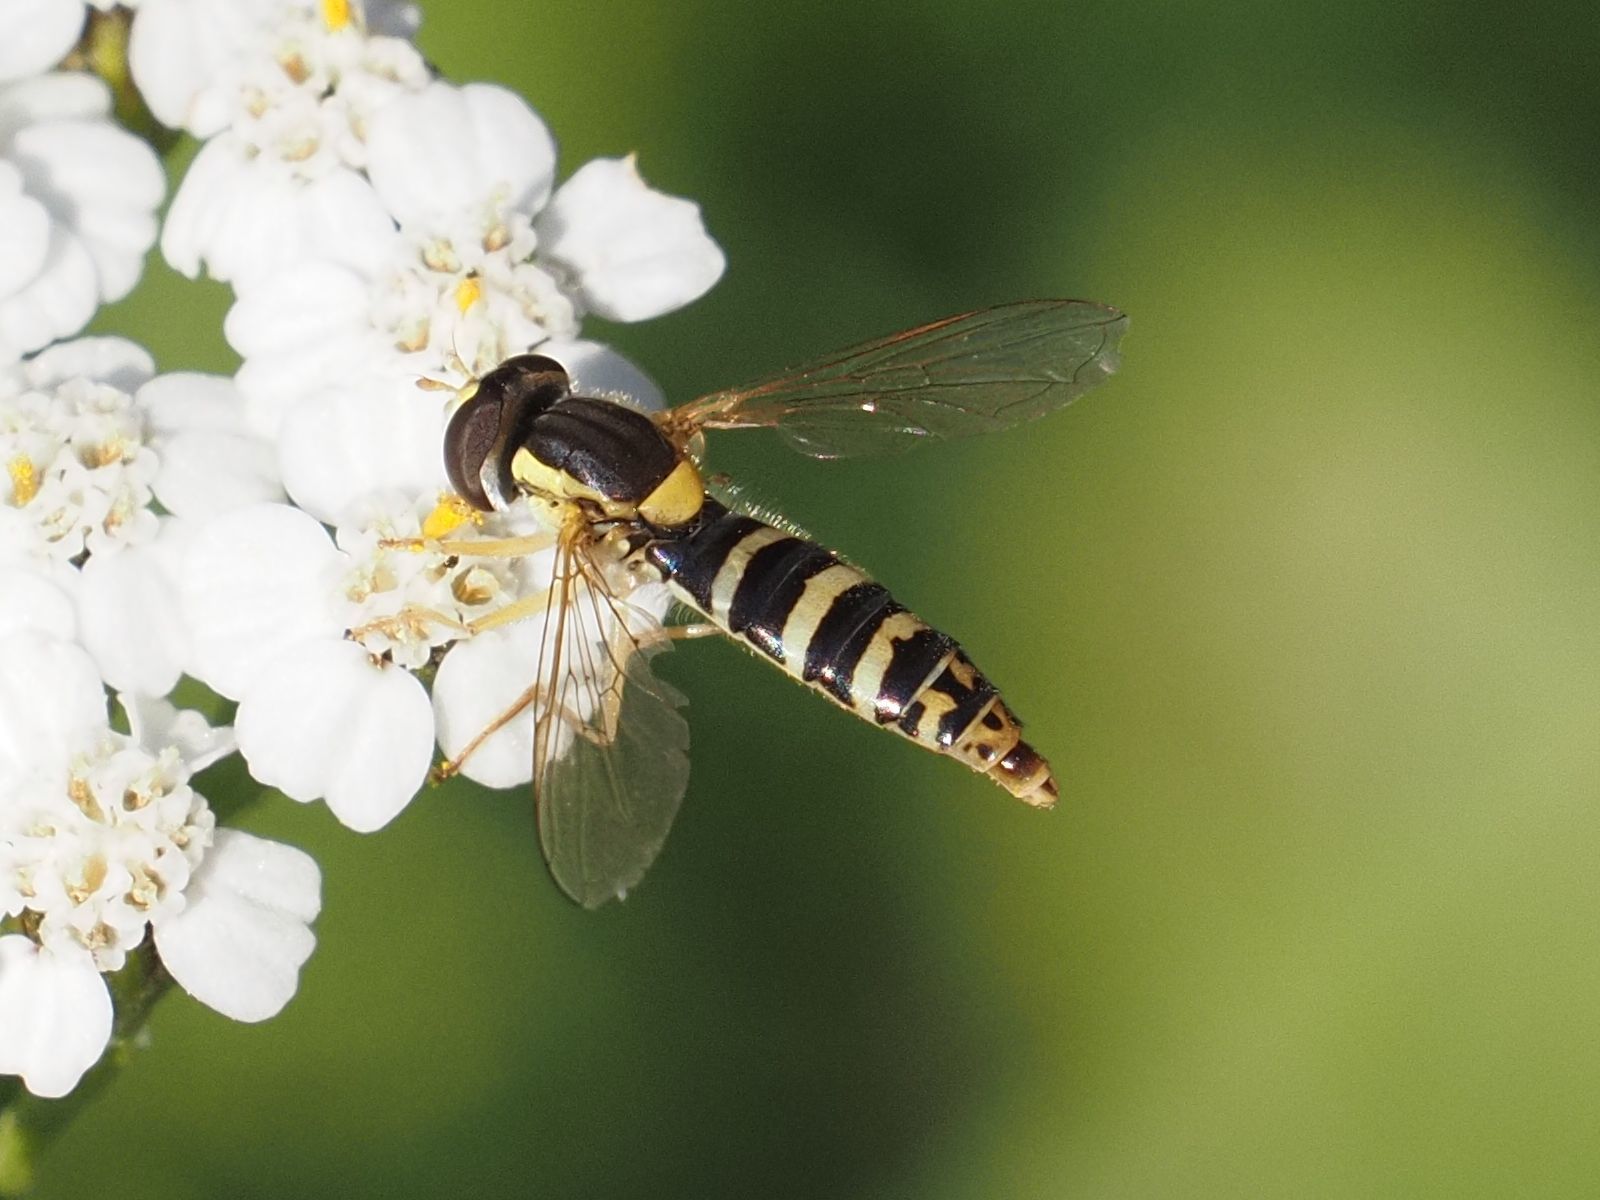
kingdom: Animalia
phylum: Arthropoda
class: Insecta
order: Diptera
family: Syrphidae
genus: Sphaerophoria
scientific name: Sphaerophoria
